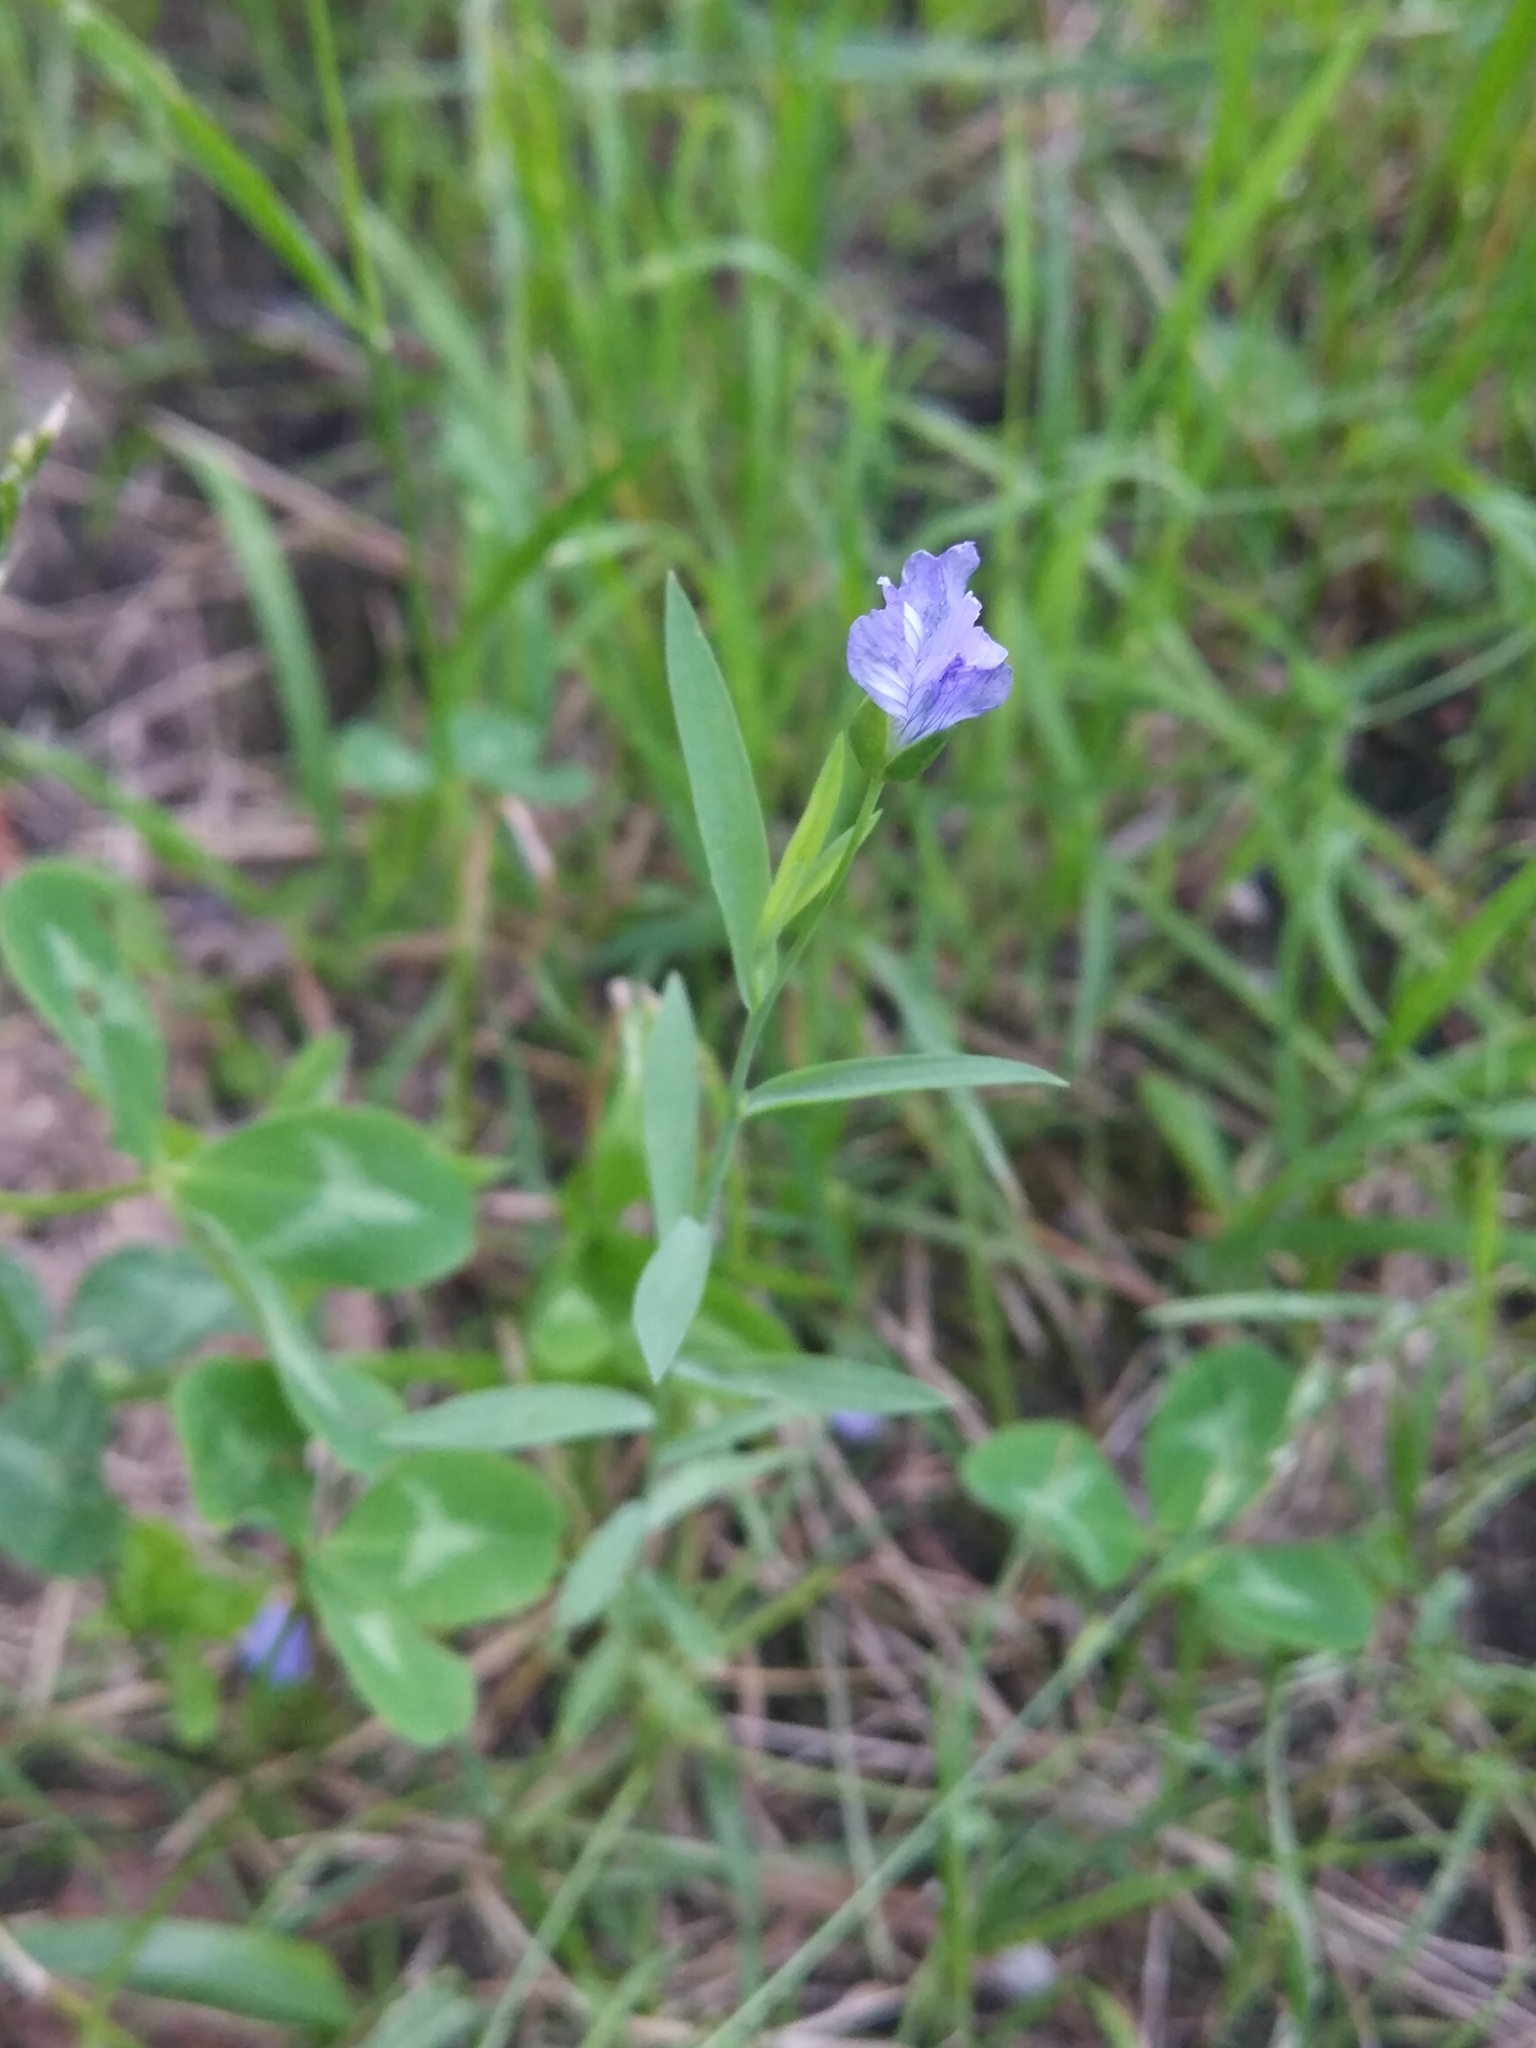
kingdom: Plantae
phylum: Tracheophyta
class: Magnoliopsida
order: Malpighiales
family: Linaceae
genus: Linum
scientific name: Linum usitatissimum
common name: Flax
